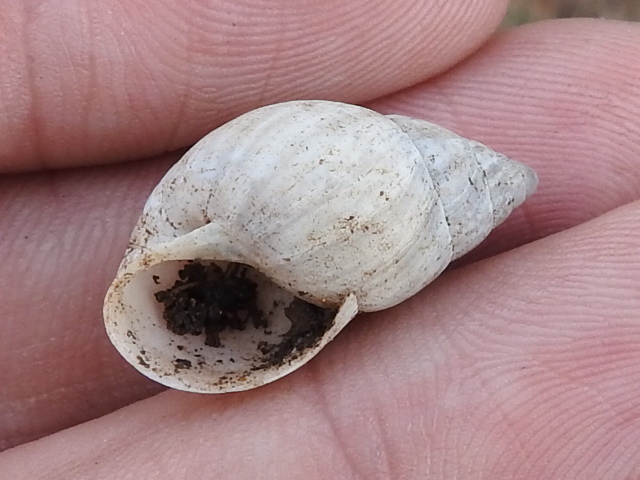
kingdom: Animalia
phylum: Mollusca
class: Gastropoda
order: Stylommatophora
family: Bulimulidae
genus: Rabdotus
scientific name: Rabdotus dealbatus
